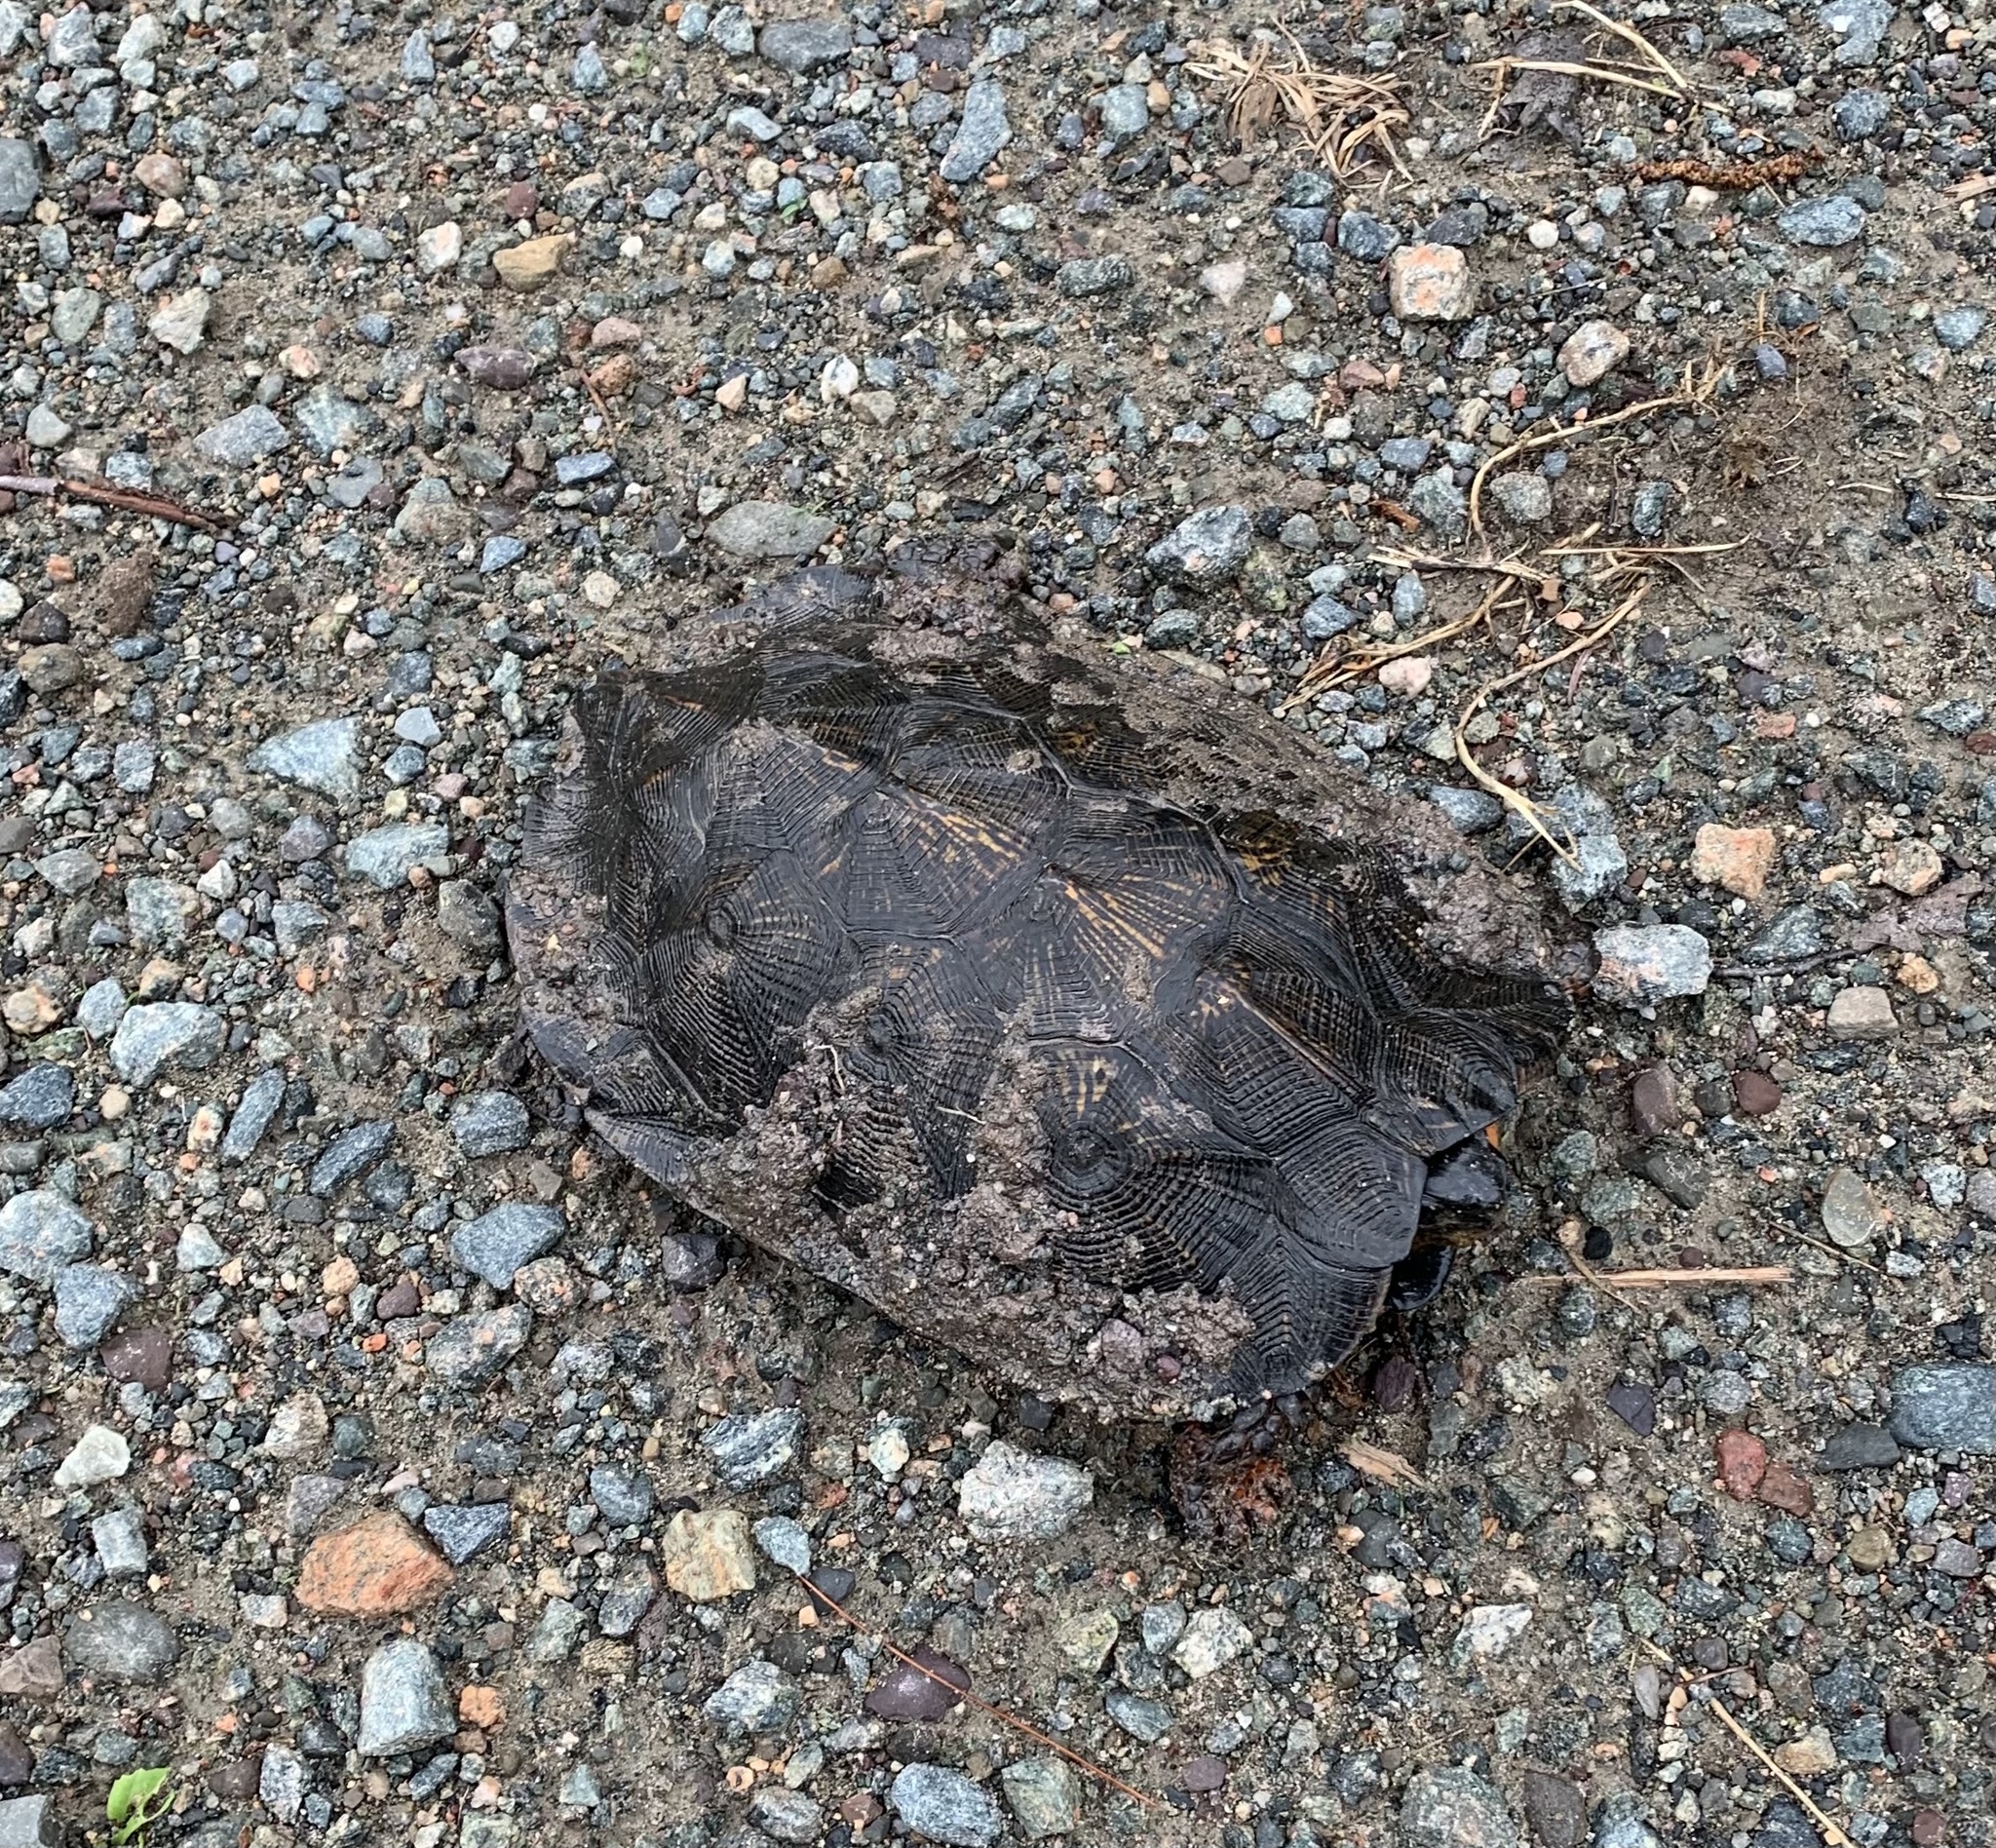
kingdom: Animalia
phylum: Chordata
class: Testudines
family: Emydidae
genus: Glyptemys
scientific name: Glyptemys insculpta
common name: Wood turtle
